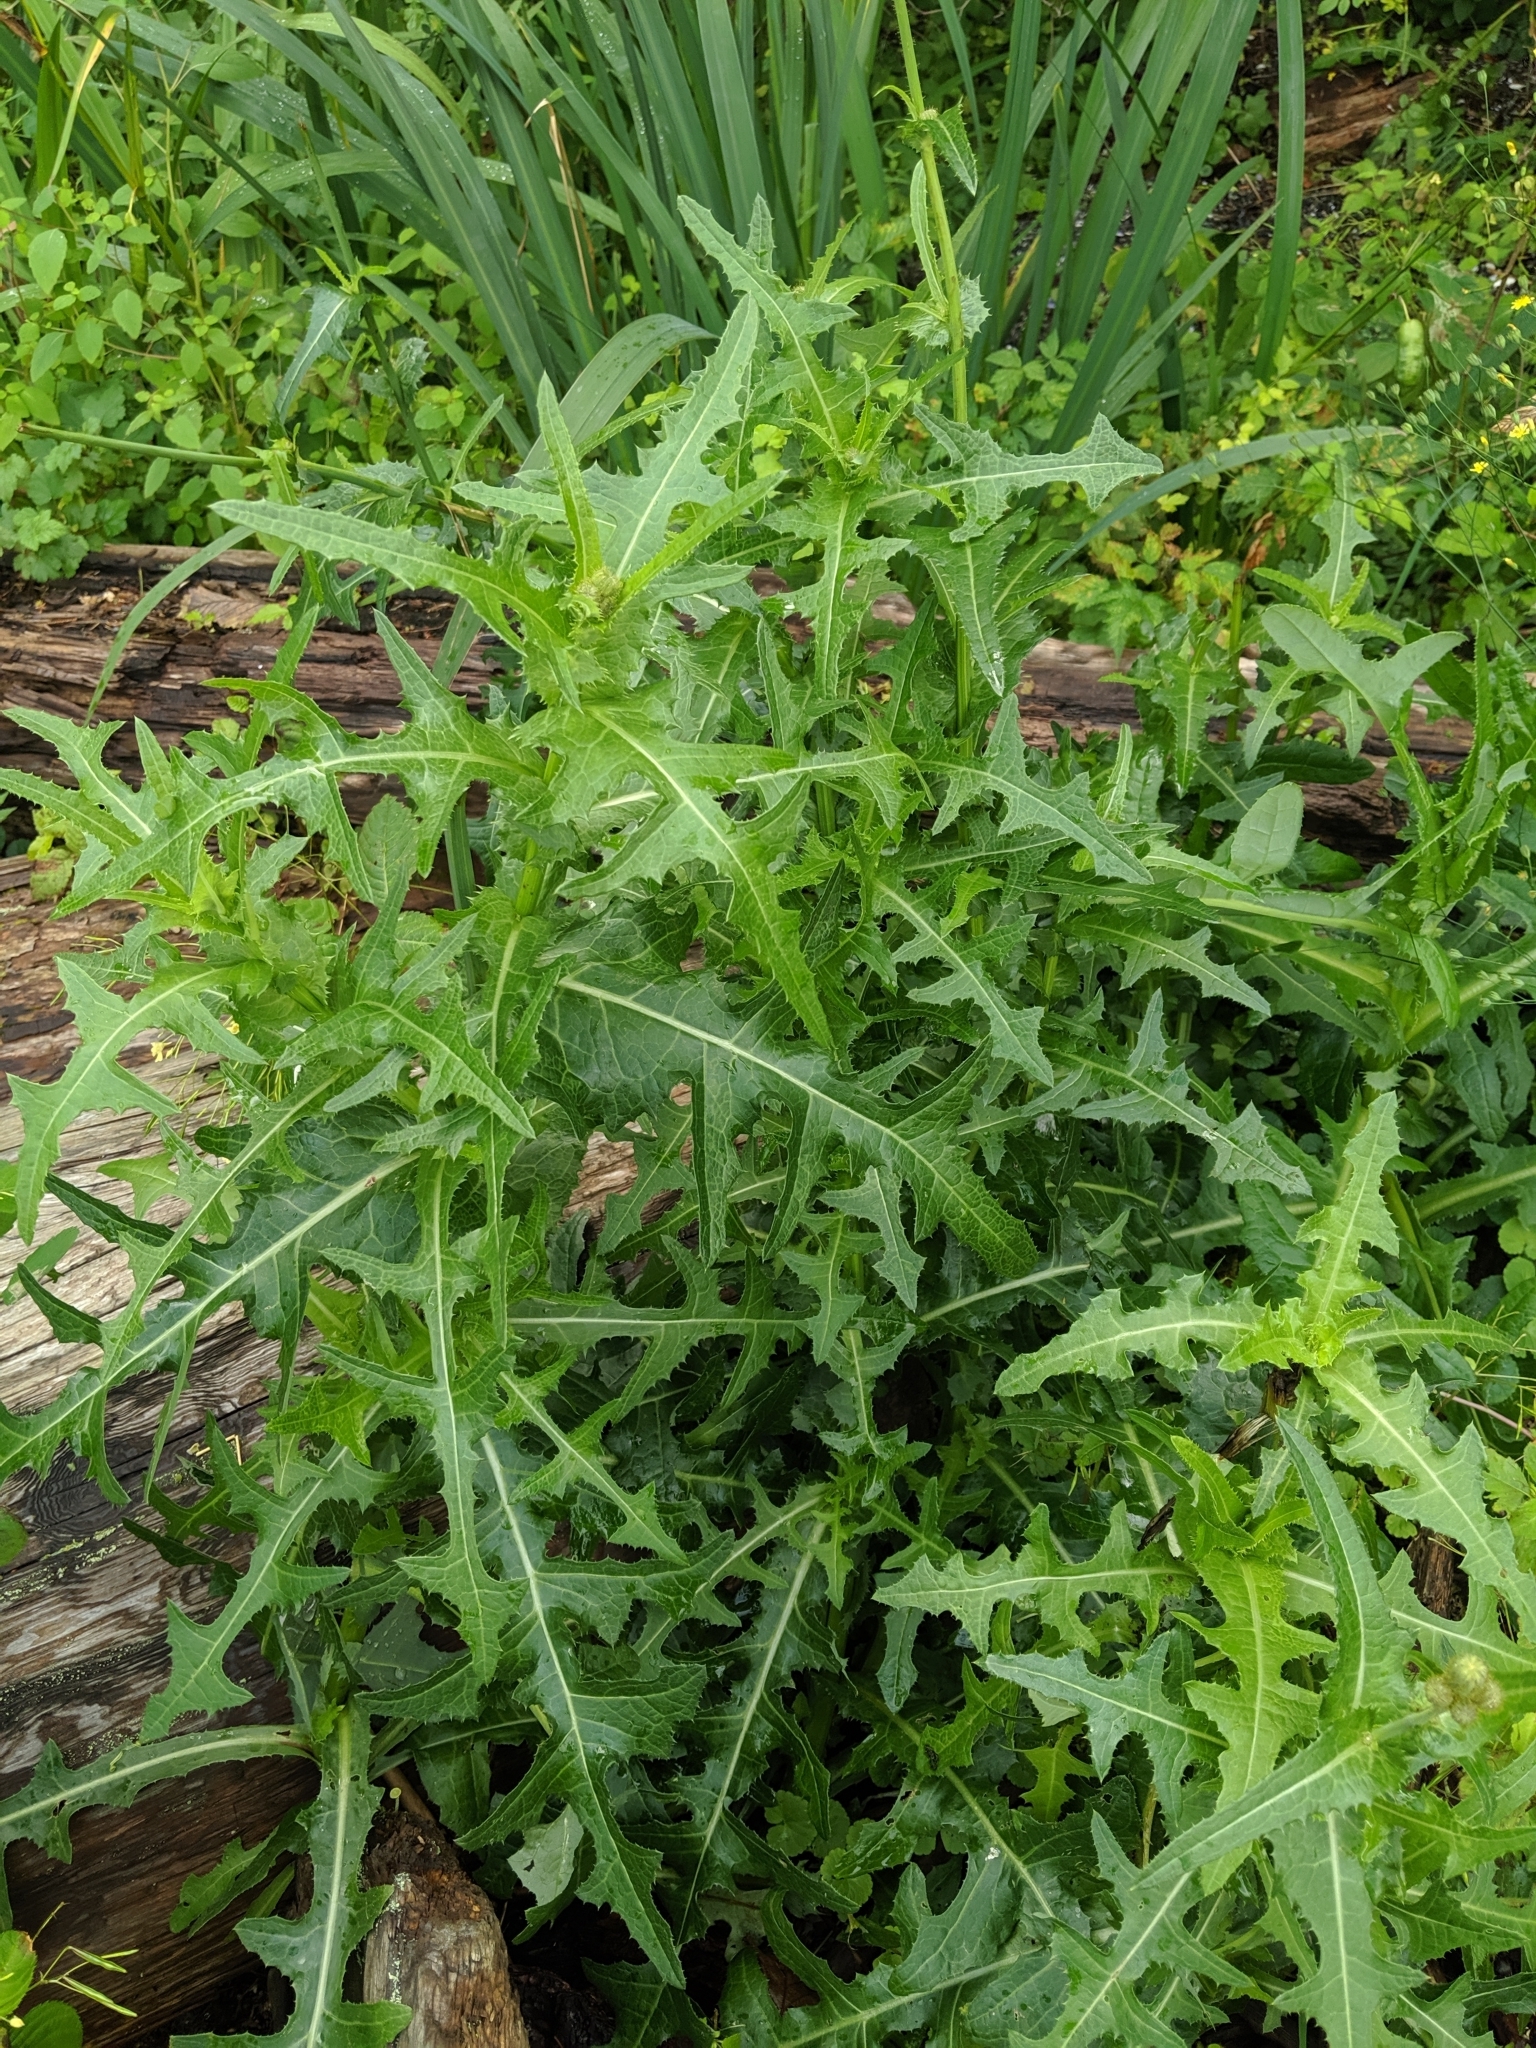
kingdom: Plantae
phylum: Tracheophyta
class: Magnoliopsida
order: Asterales
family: Asteraceae
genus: Sonchus
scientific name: Sonchus arvensis
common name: Perennial sow-thistle
